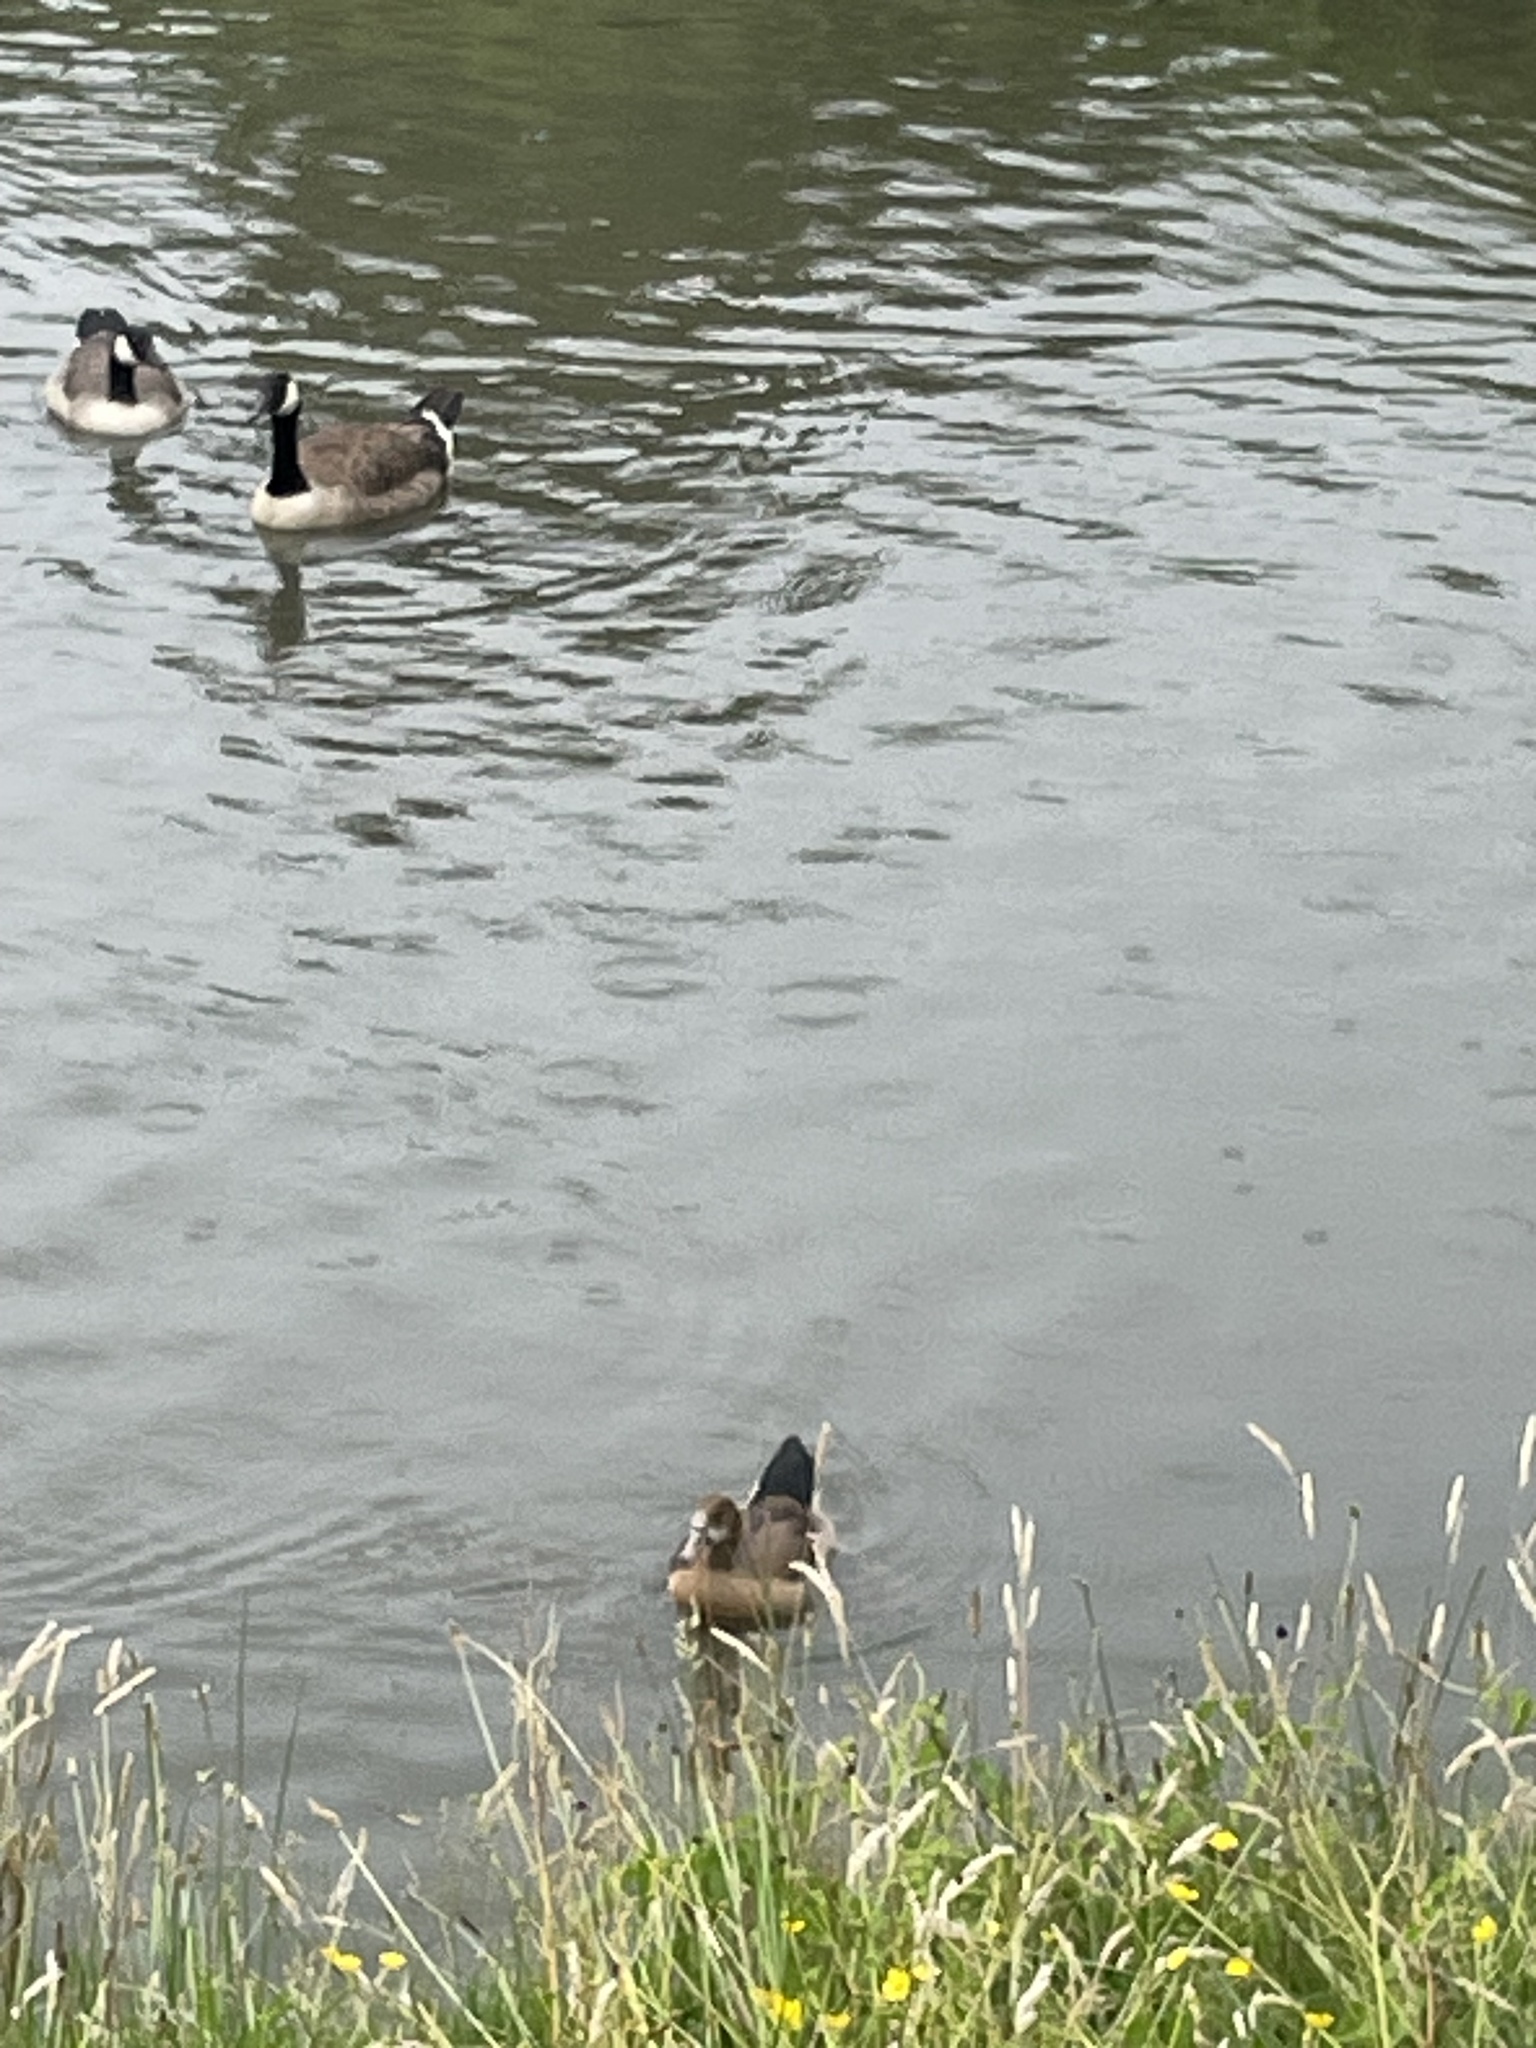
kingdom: Animalia
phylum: Chordata
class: Aves
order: Anseriformes
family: Anatidae
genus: Alopochen
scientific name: Alopochen aegyptiaca
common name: Egyptian goose
